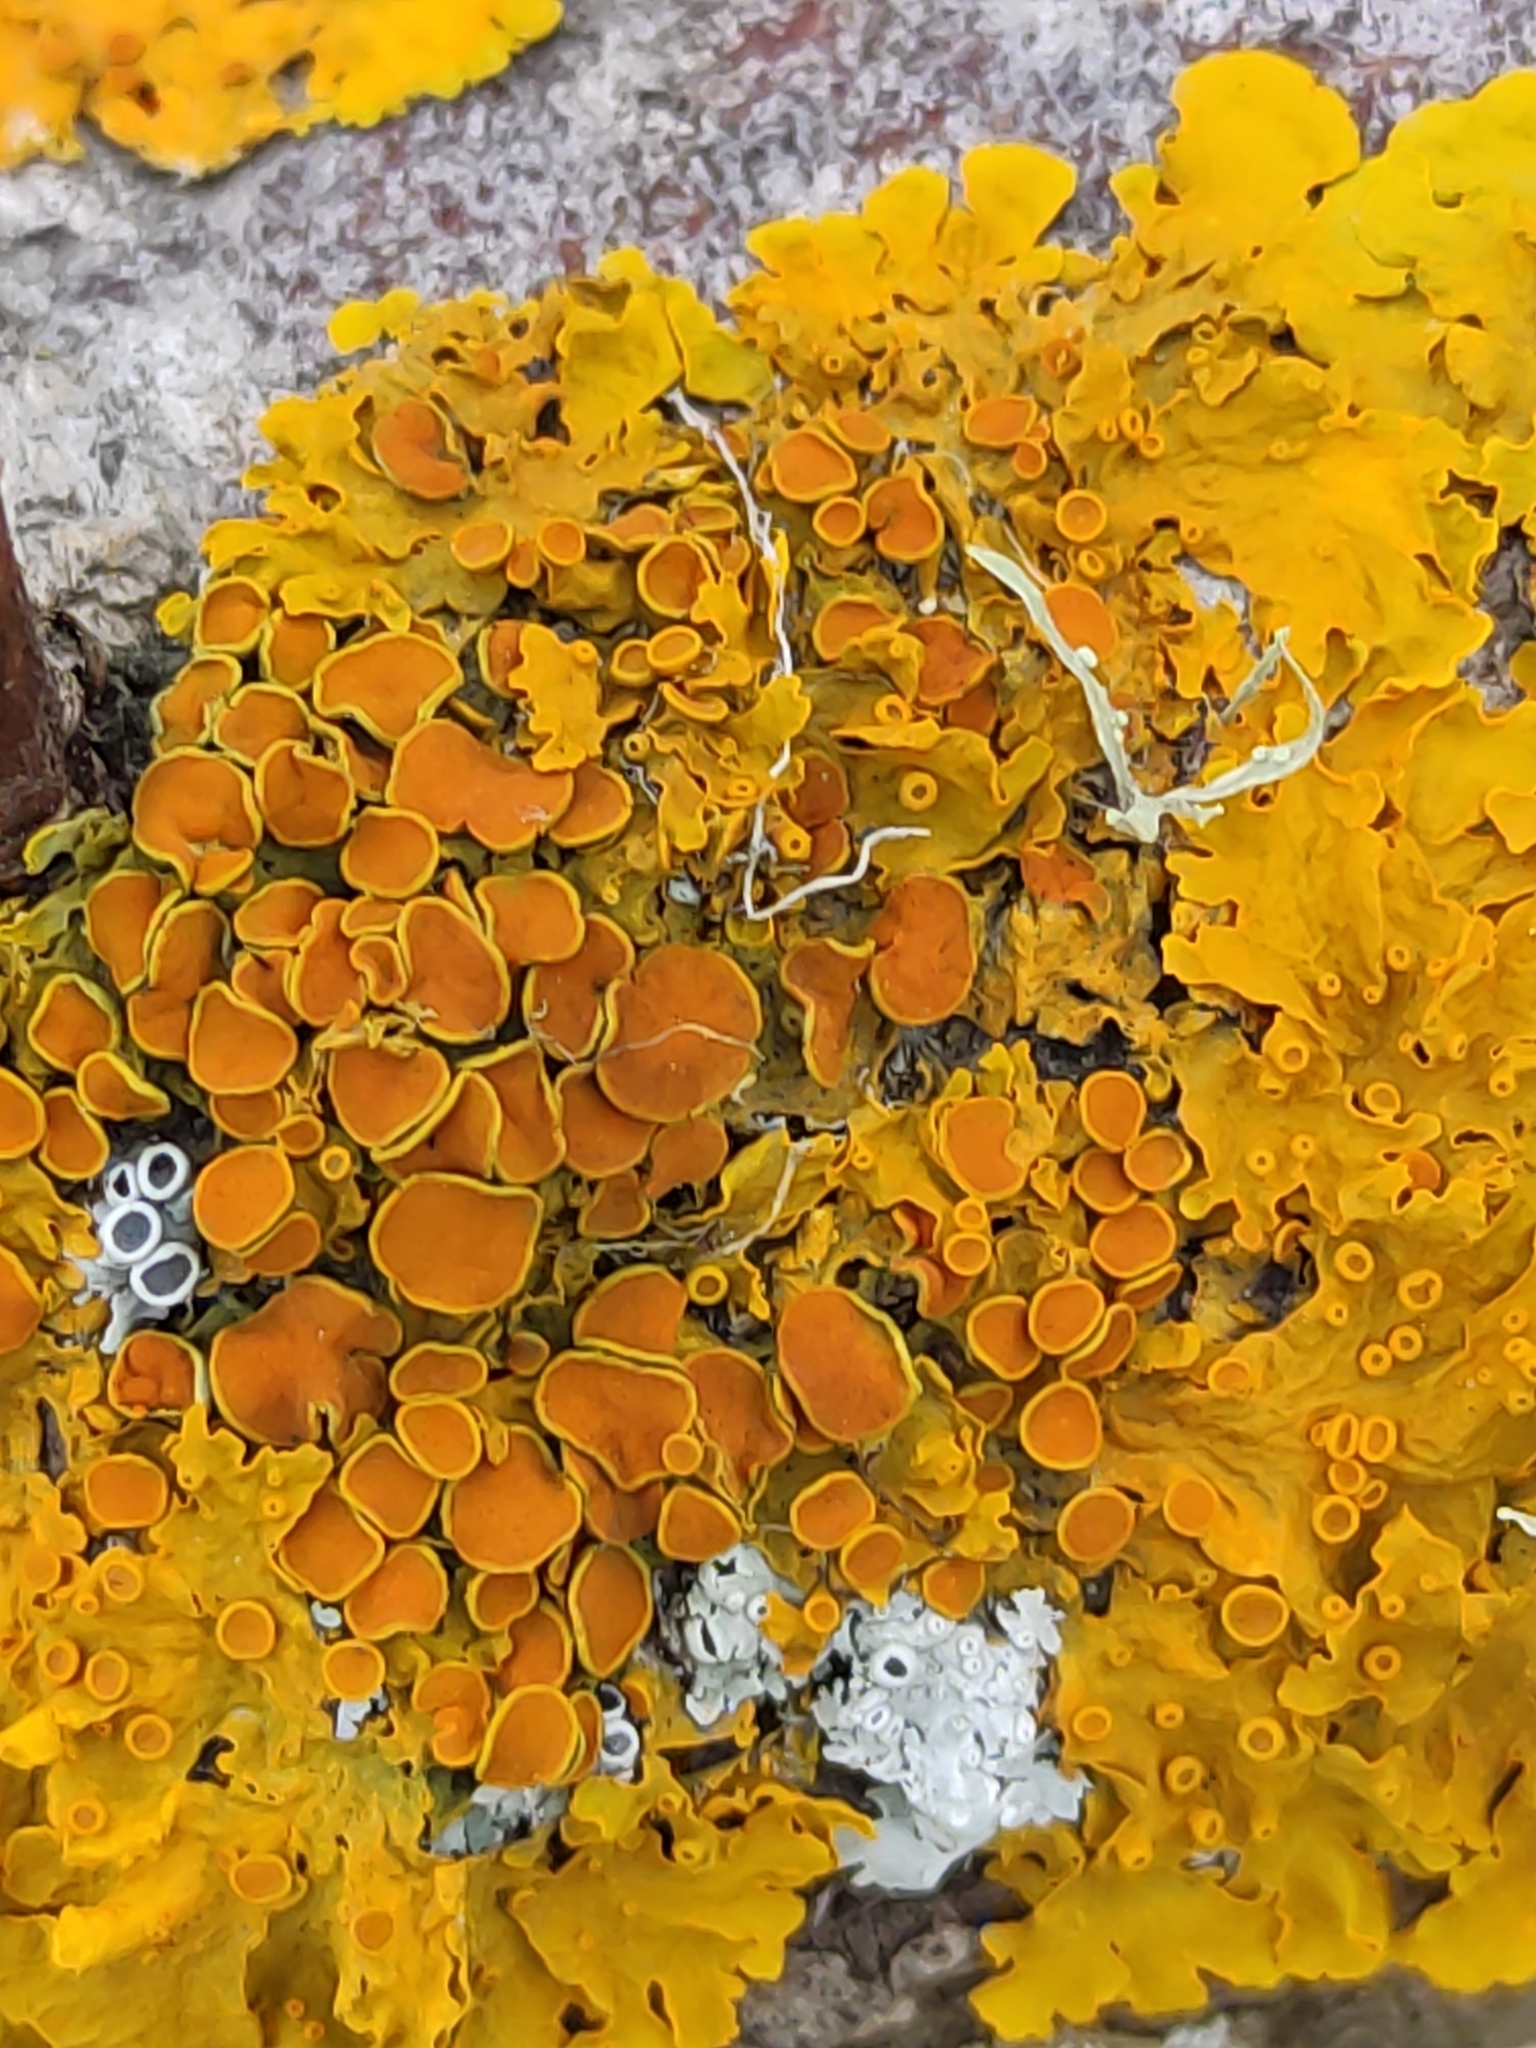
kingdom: Fungi
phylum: Ascomycota
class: Lecanoromycetes
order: Teloschistales
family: Teloschistaceae
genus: Xanthoria
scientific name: Xanthoria parietina
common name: Common orange lichen
